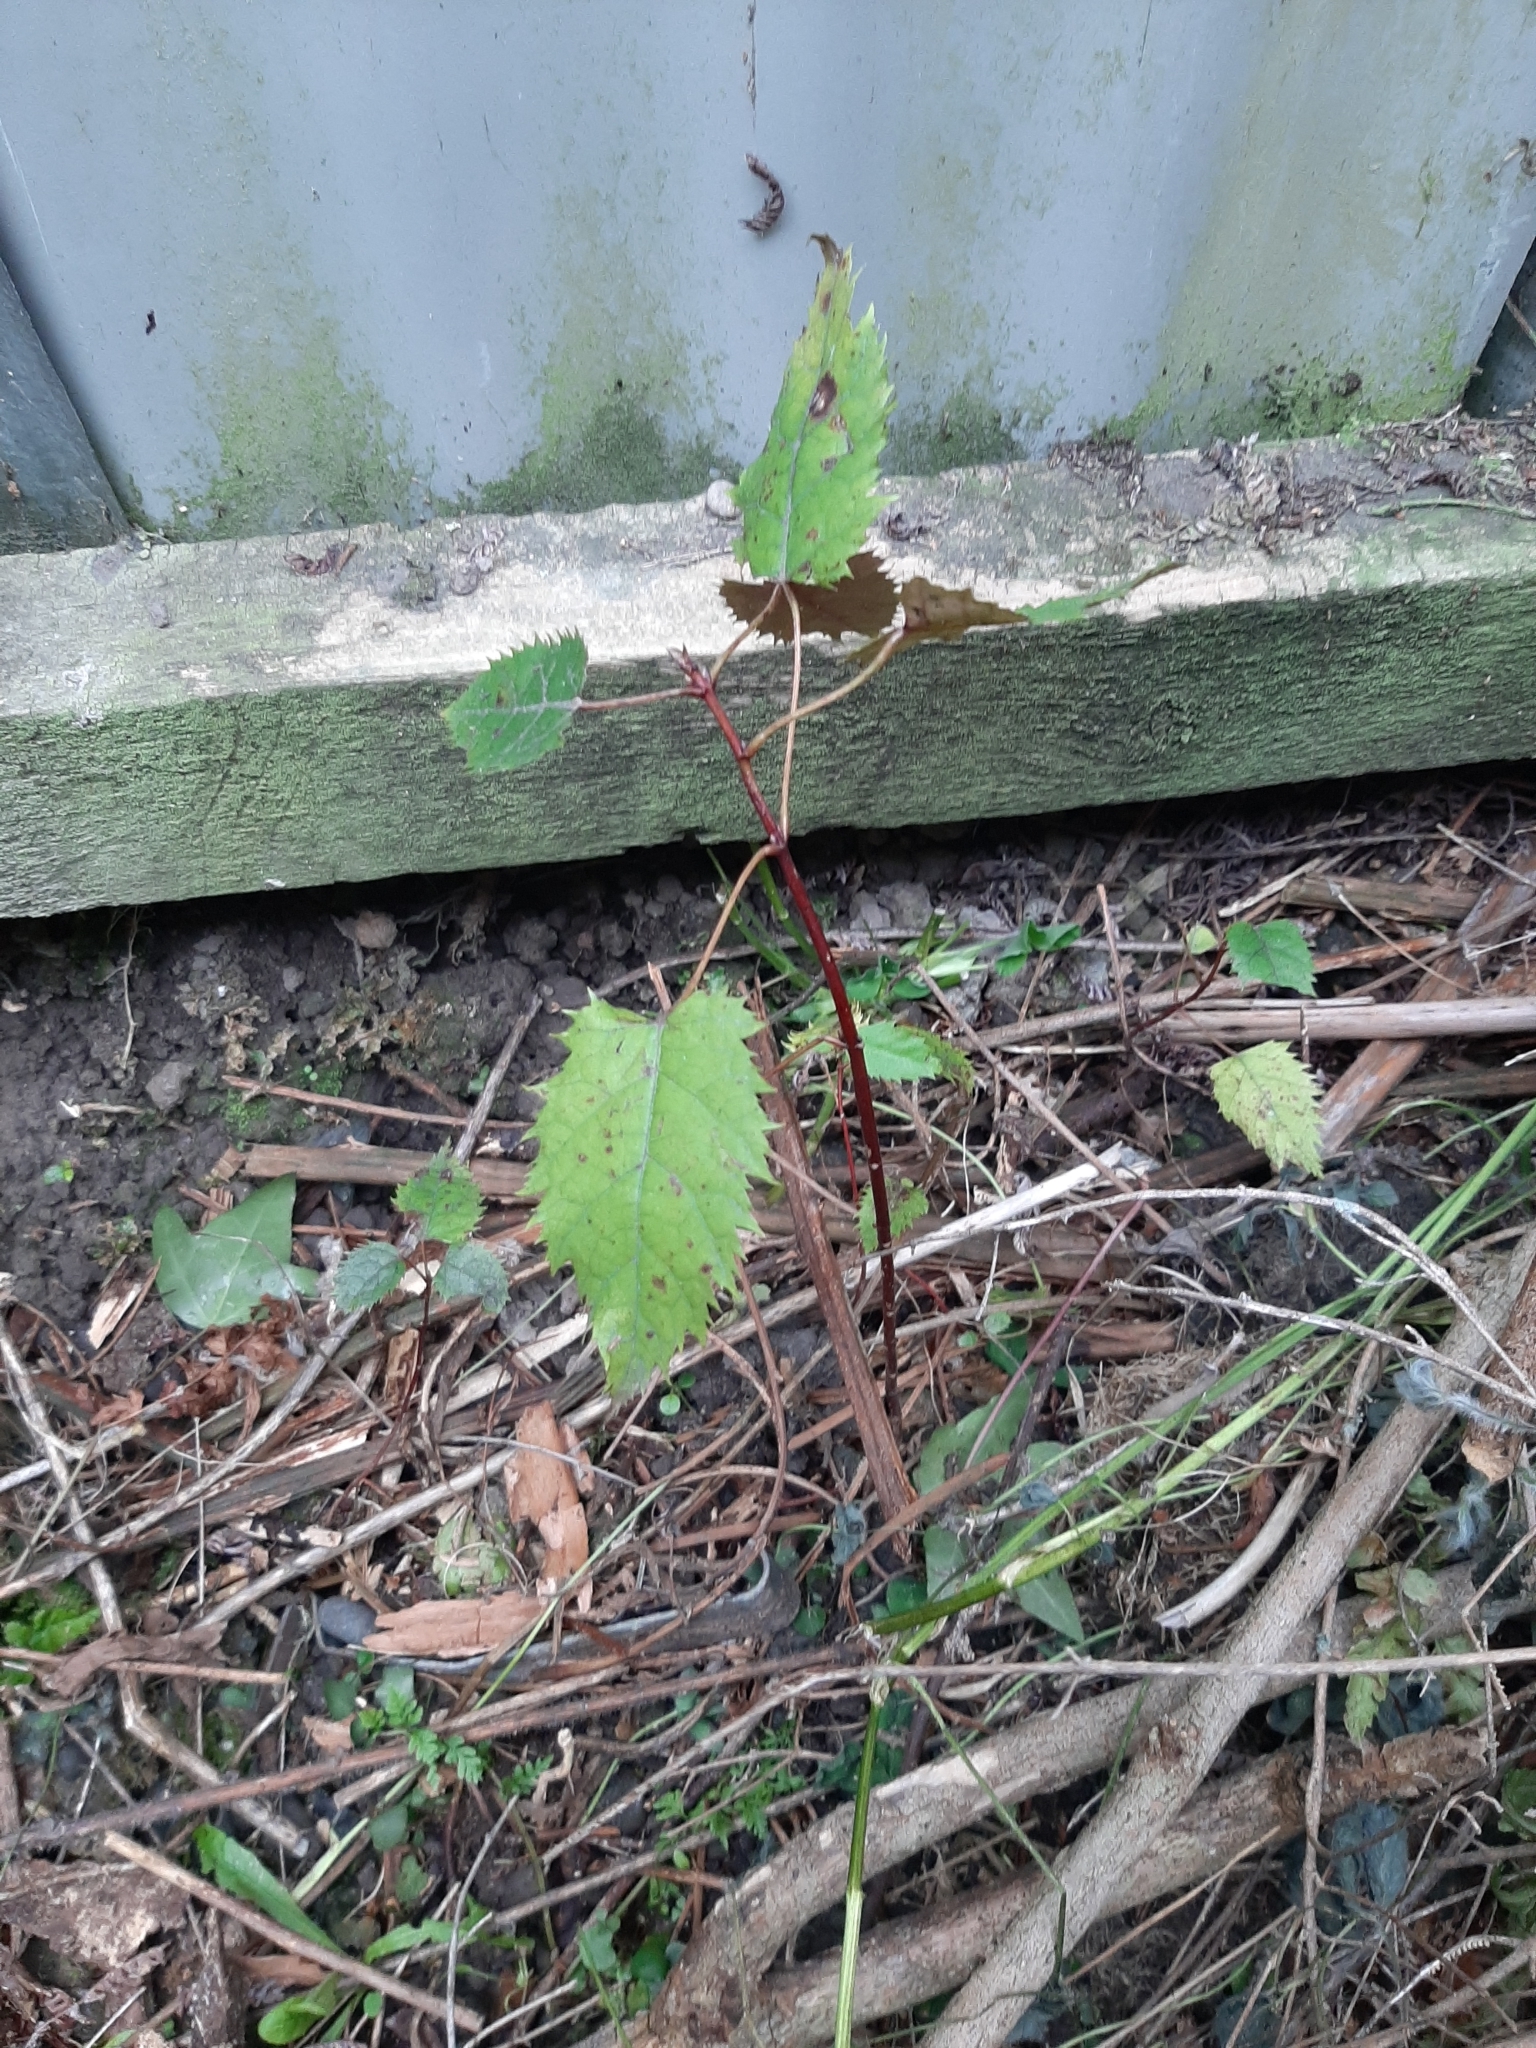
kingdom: Plantae
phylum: Tracheophyta
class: Magnoliopsida
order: Oxalidales
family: Elaeocarpaceae
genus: Aristotelia
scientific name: Aristotelia serrata
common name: New zealand wineberry
